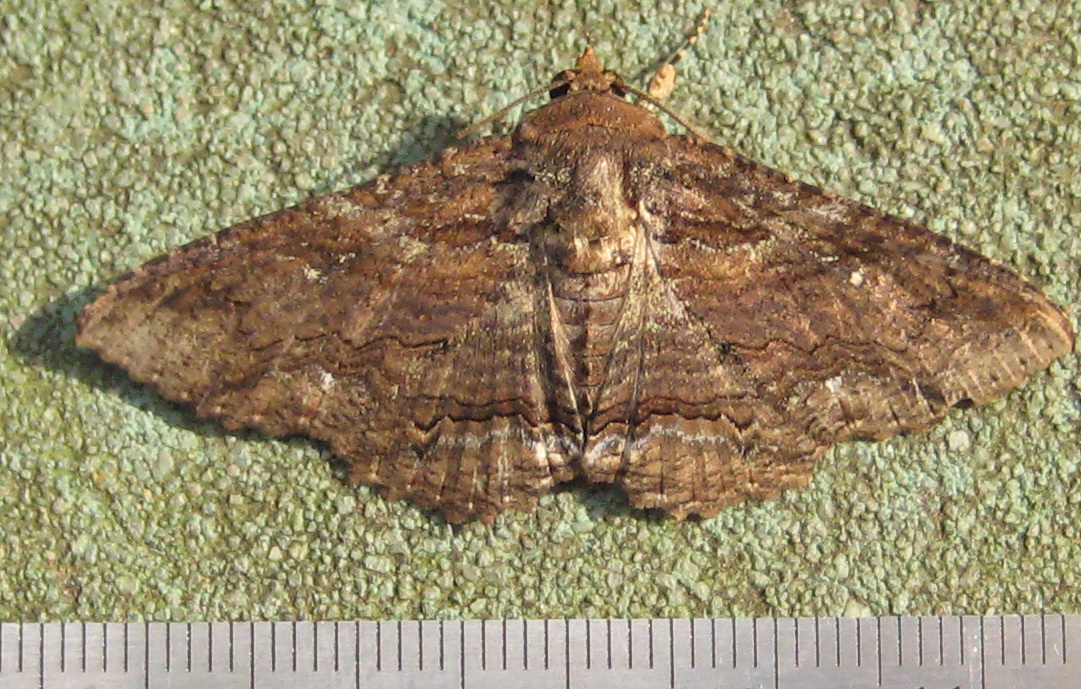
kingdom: Animalia
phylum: Arthropoda
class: Insecta
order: Lepidoptera
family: Erebidae
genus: Zale
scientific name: Zale lunata
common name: Lunate zale moth
